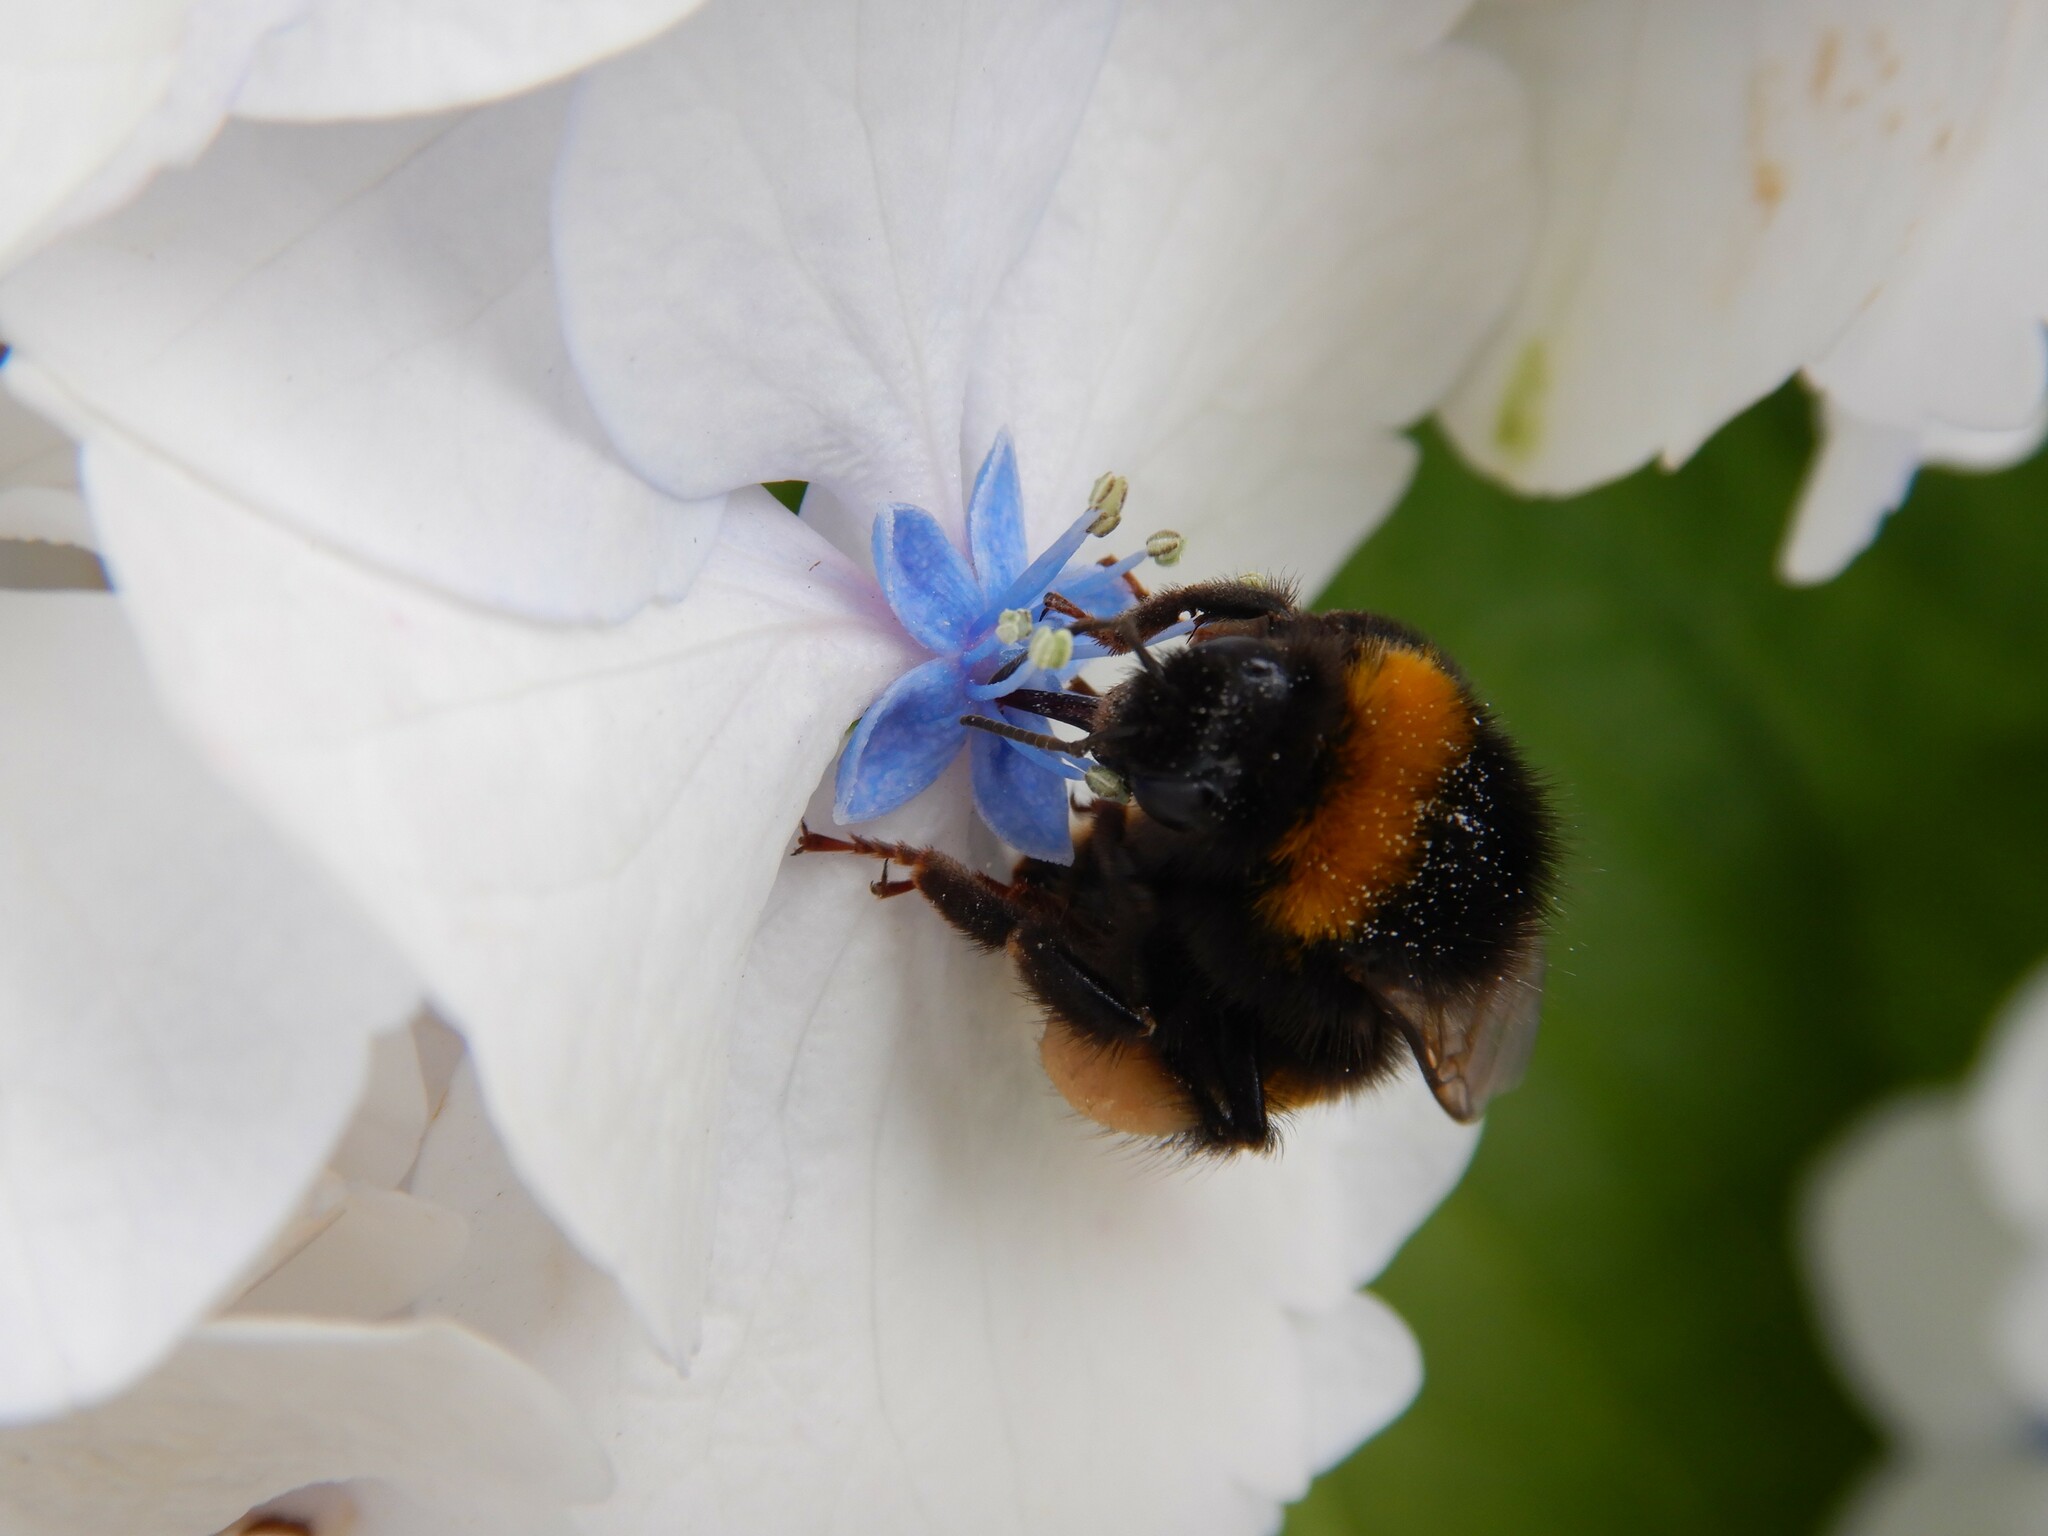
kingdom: Animalia
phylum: Arthropoda
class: Insecta
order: Hymenoptera
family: Apidae
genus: Bombus
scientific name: Bombus terrestris
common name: Buff-tailed bumblebee
